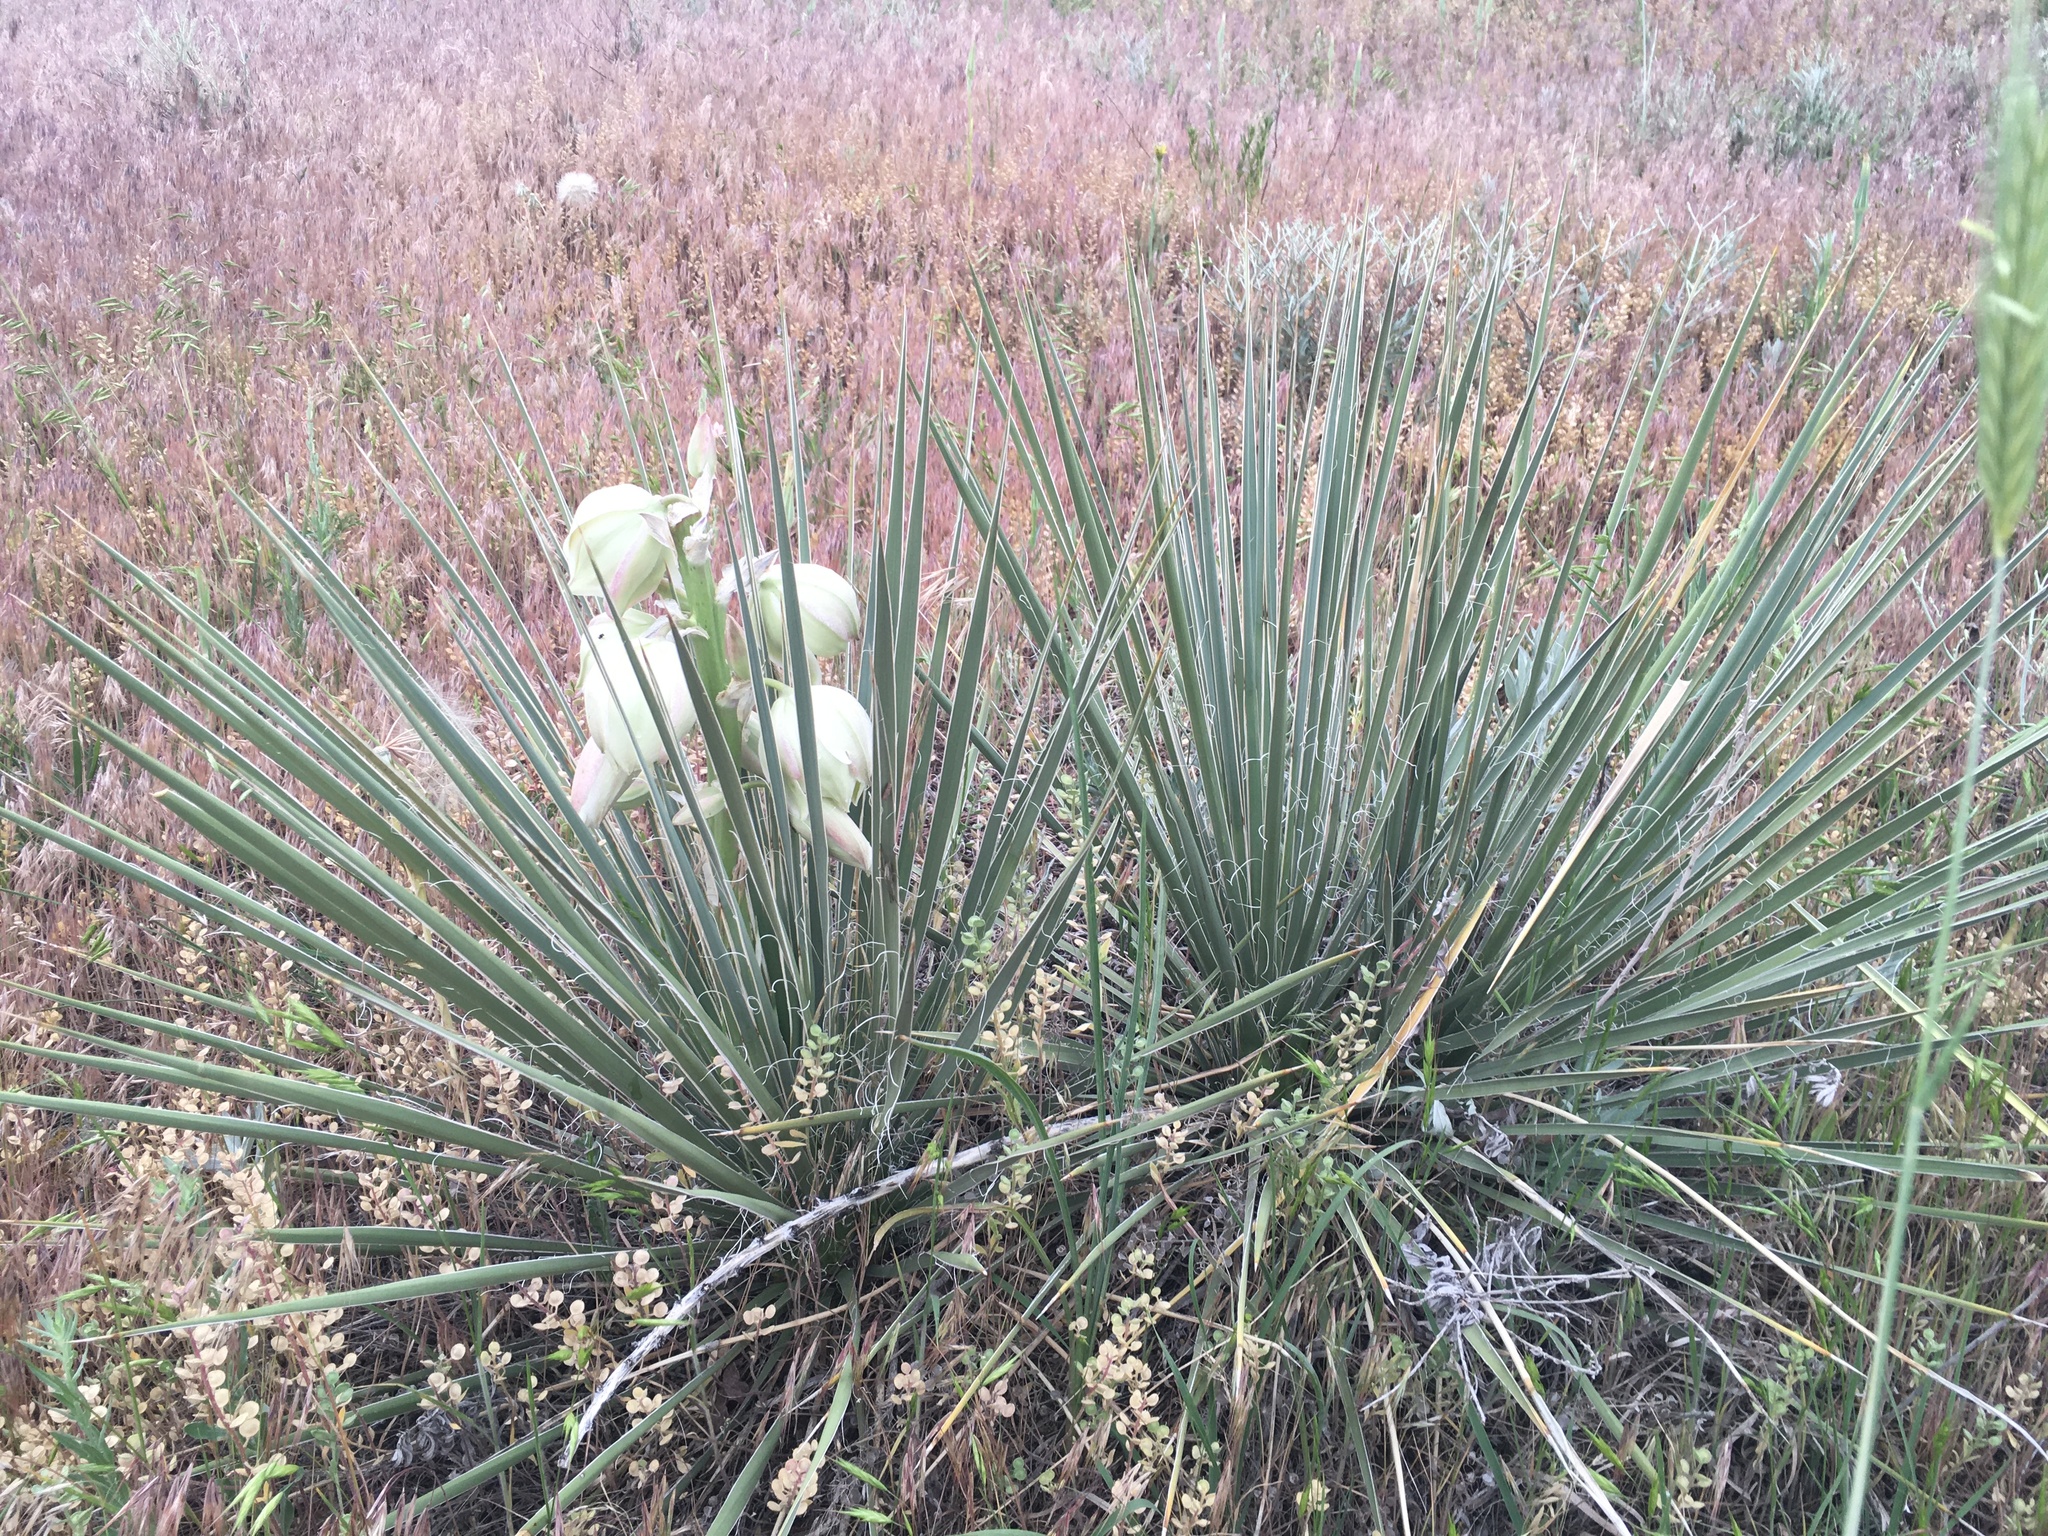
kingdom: Plantae
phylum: Tracheophyta
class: Liliopsida
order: Asparagales
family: Asparagaceae
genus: Yucca
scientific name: Yucca glauca
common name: Great plains yucca
